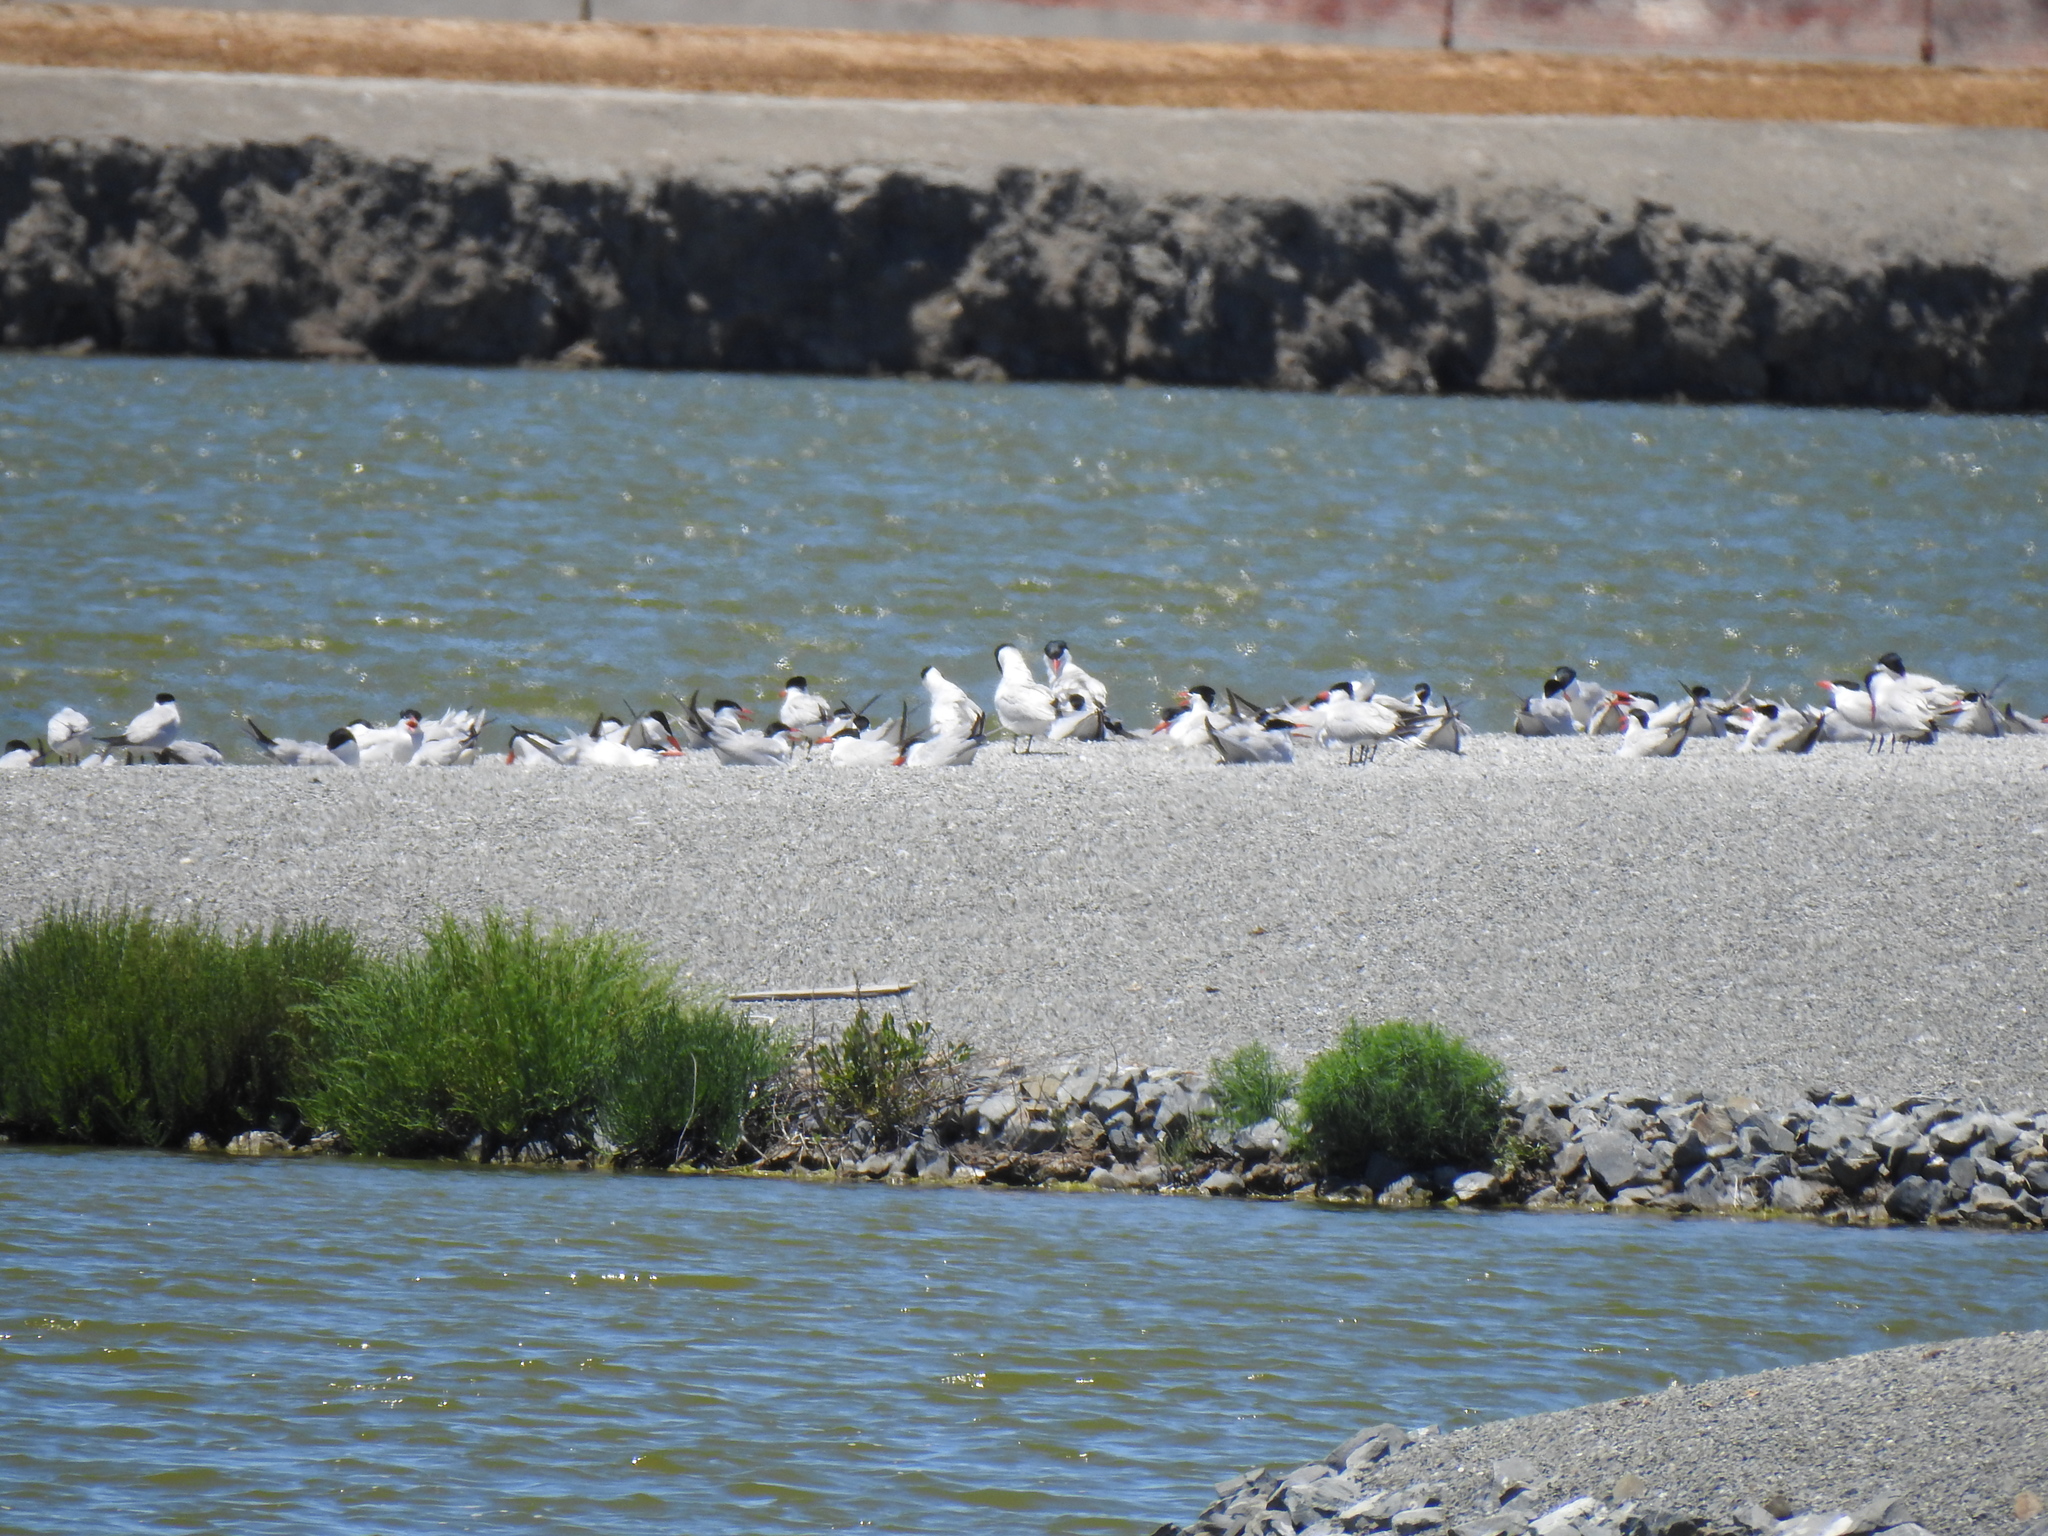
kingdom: Animalia
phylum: Chordata
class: Aves
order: Charadriiformes
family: Laridae
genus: Hydroprogne
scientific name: Hydroprogne caspia
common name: Caspian tern
